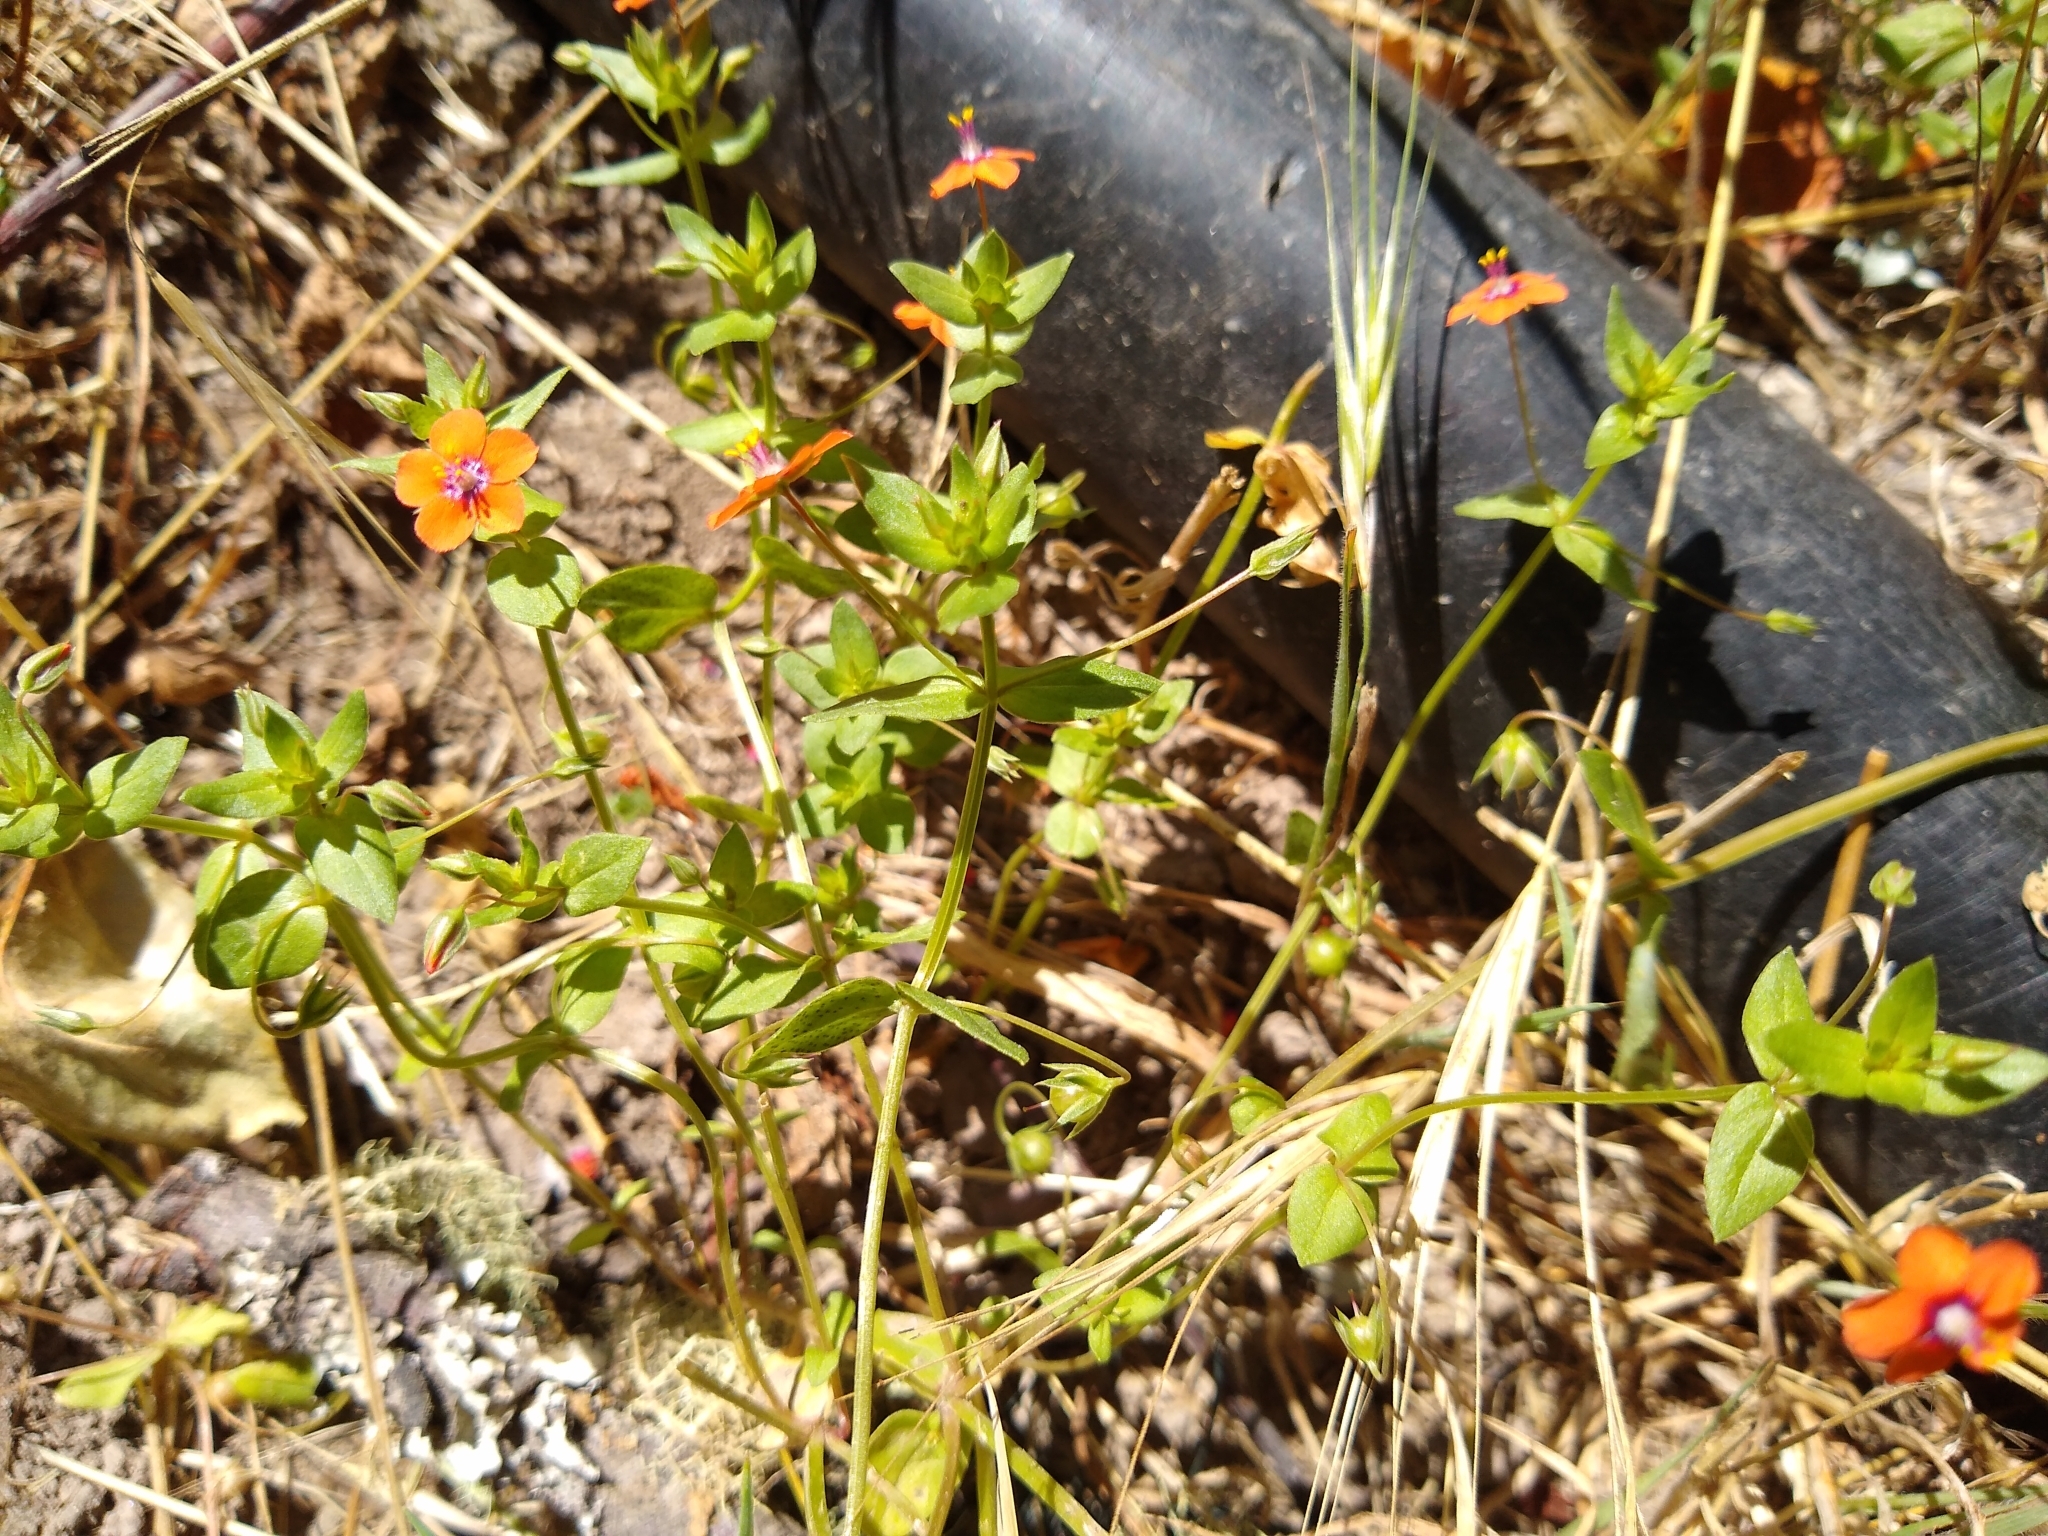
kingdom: Plantae
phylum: Tracheophyta
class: Magnoliopsida
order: Ericales
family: Primulaceae
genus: Lysimachia
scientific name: Lysimachia arvensis
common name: Scarlet pimpernel
